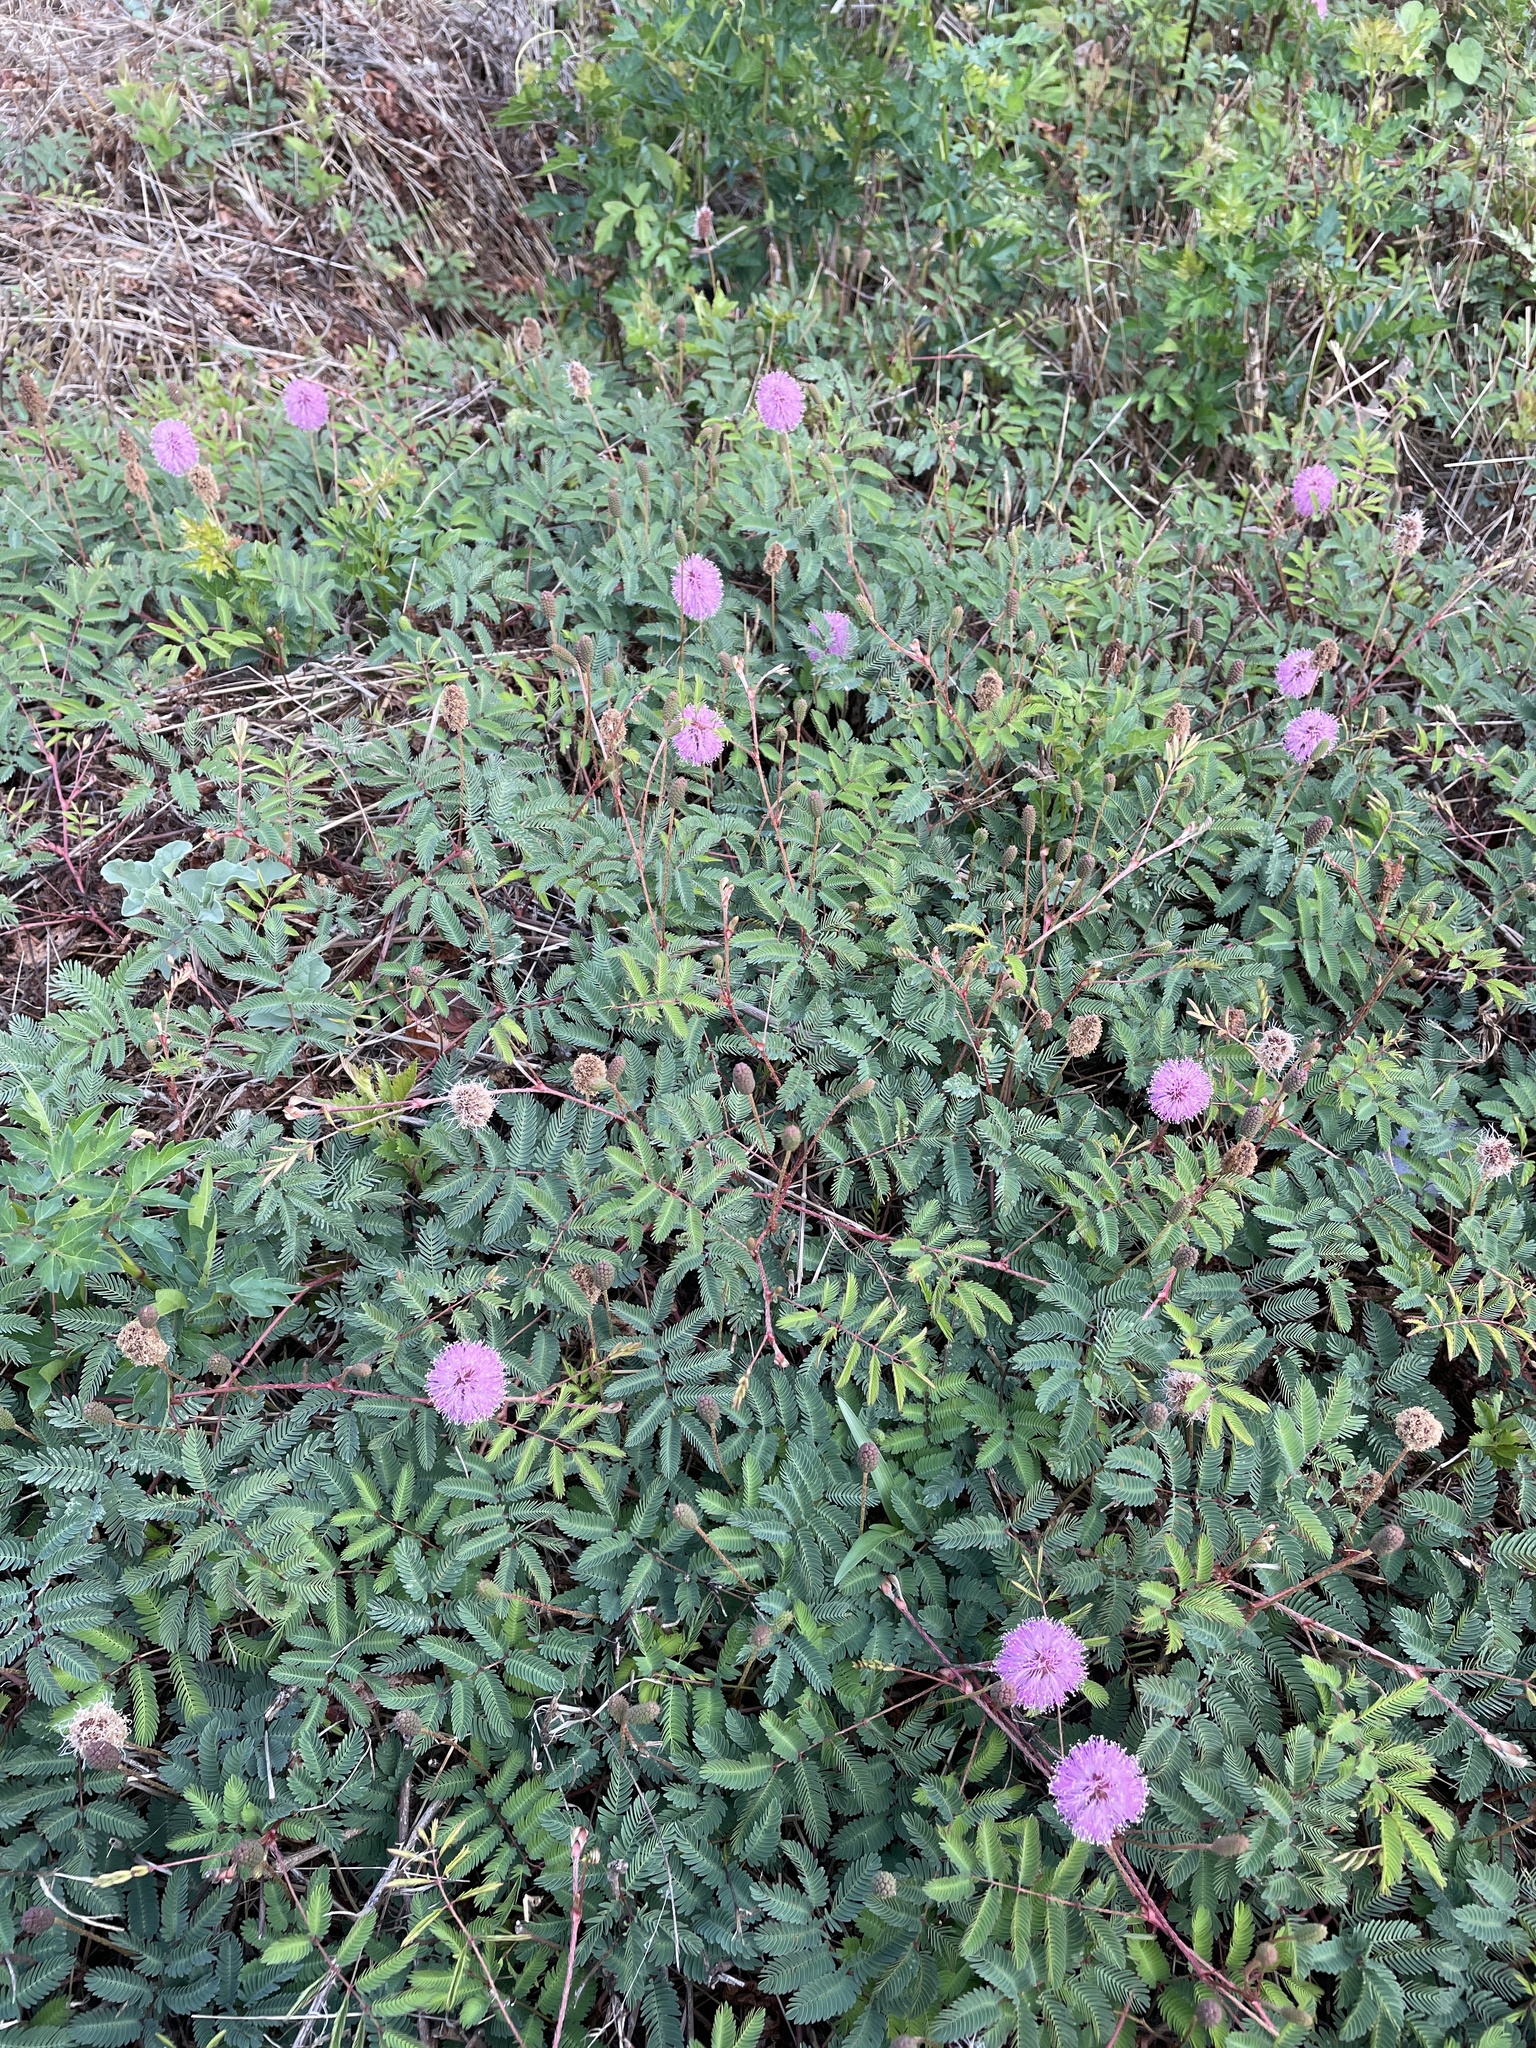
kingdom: Plantae
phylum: Tracheophyta
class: Magnoliopsida
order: Fabales
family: Fabaceae
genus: Mimosa
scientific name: Mimosa strigillosa
